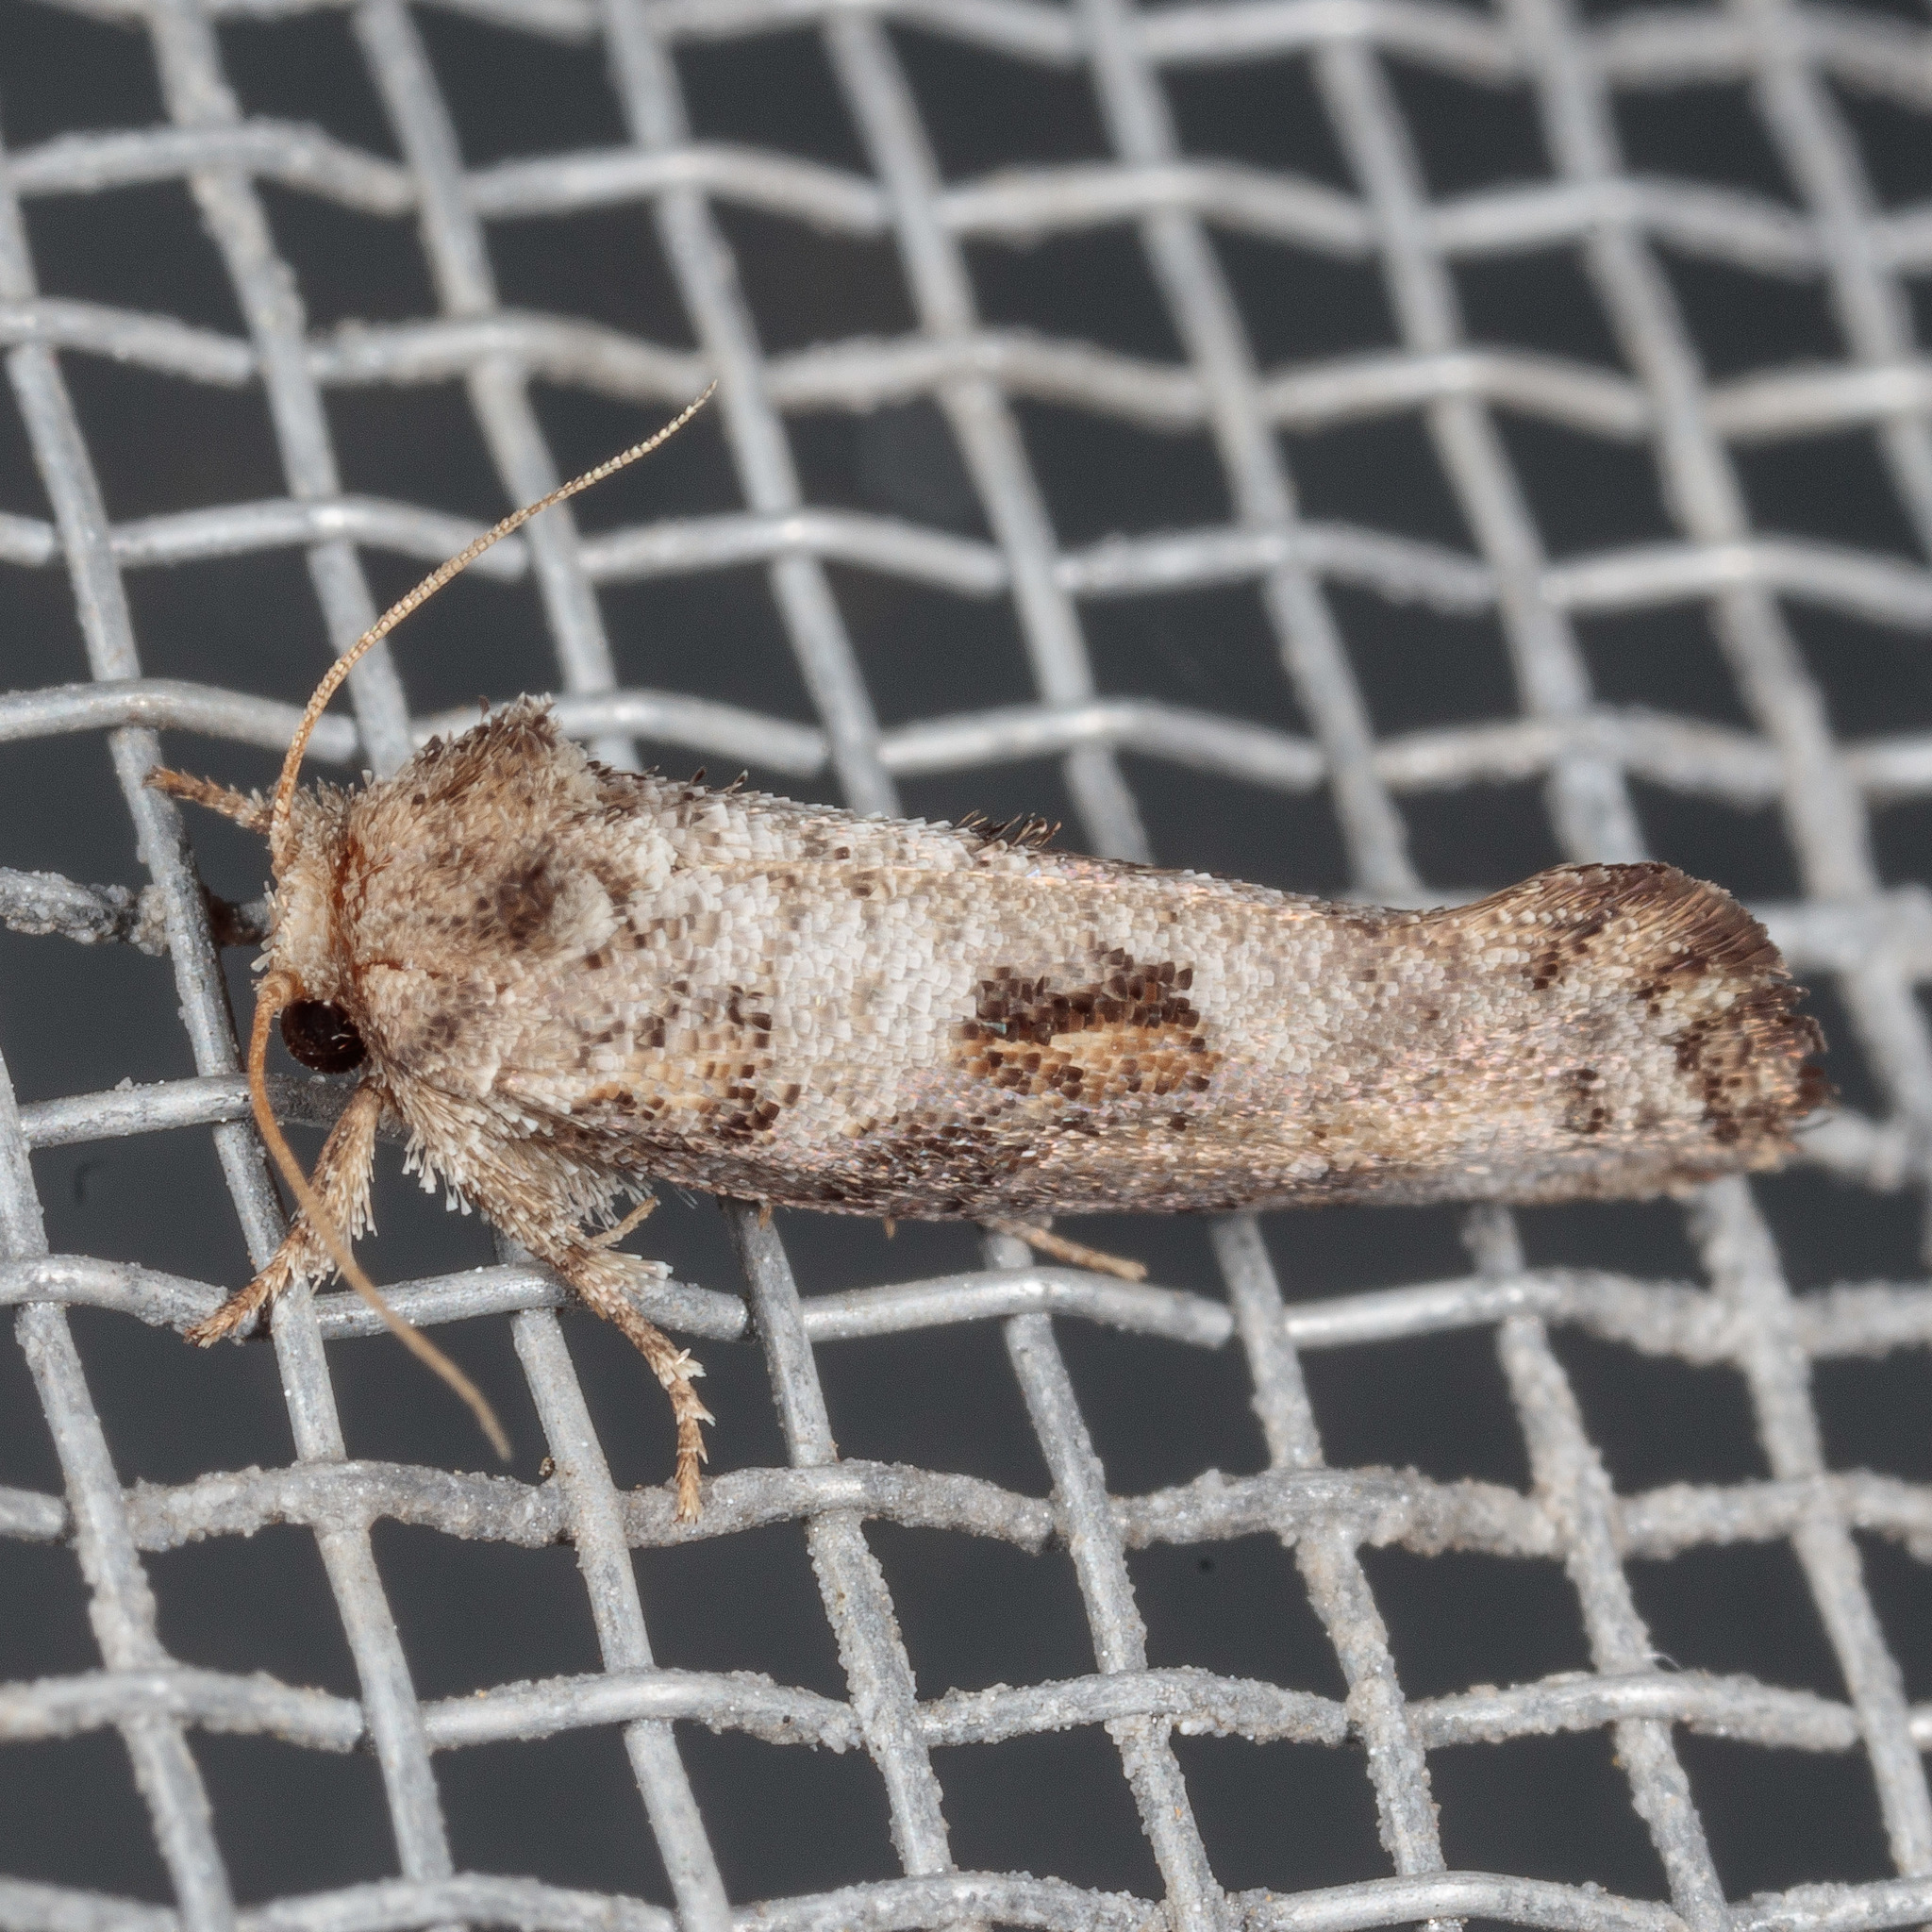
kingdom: Animalia
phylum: Arthropoda
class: Insecta
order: Lepidoptera
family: Tineidae
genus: Acrolophus
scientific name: Acrolophus piger
